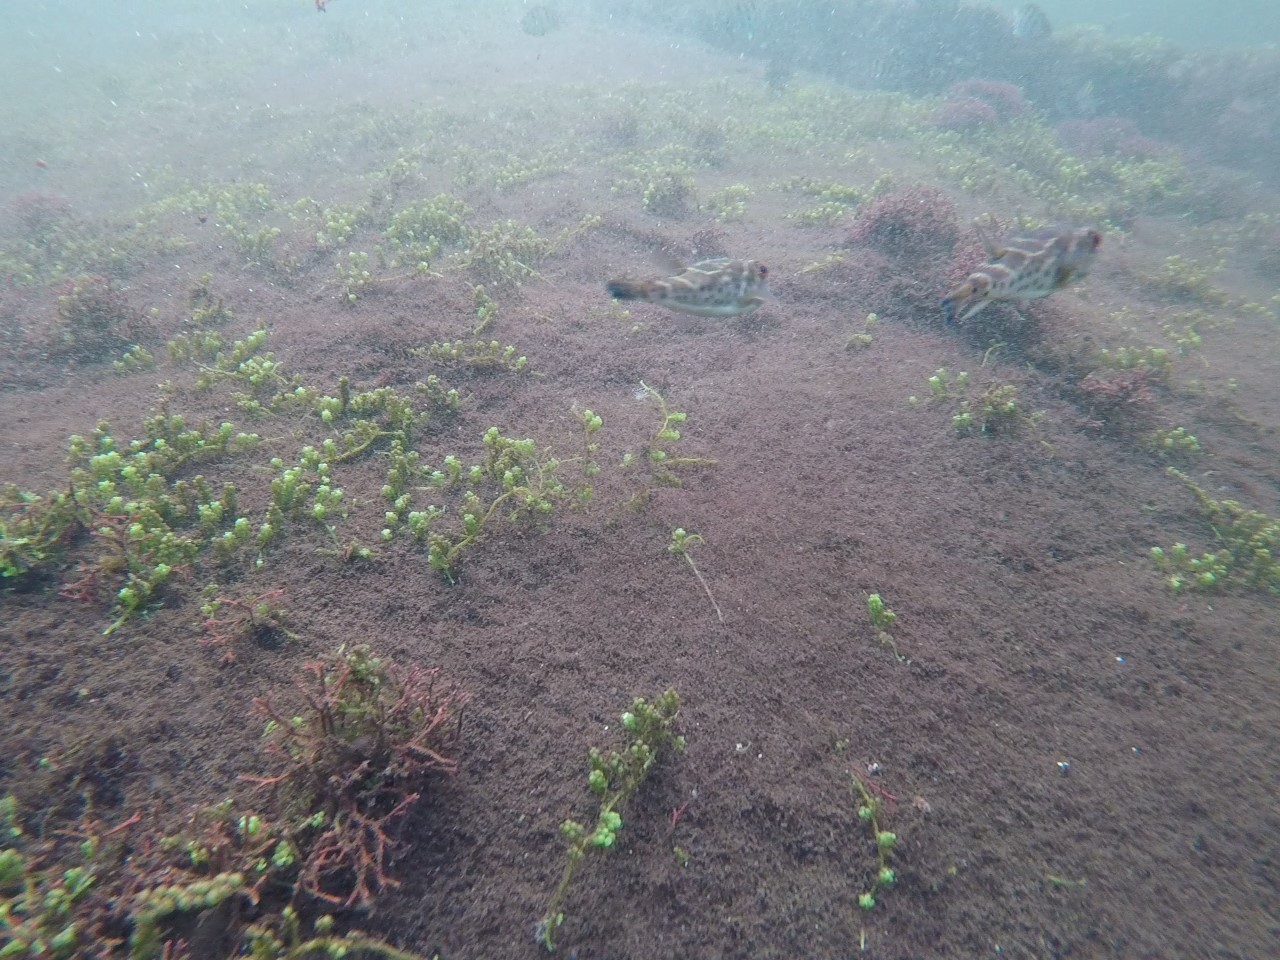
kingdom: Animalia
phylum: Chordata
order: Tetraodontiformes
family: Tetraodontidae
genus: Sphoeroides
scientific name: Sphoeroides annulatus
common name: Bullseye puffer
